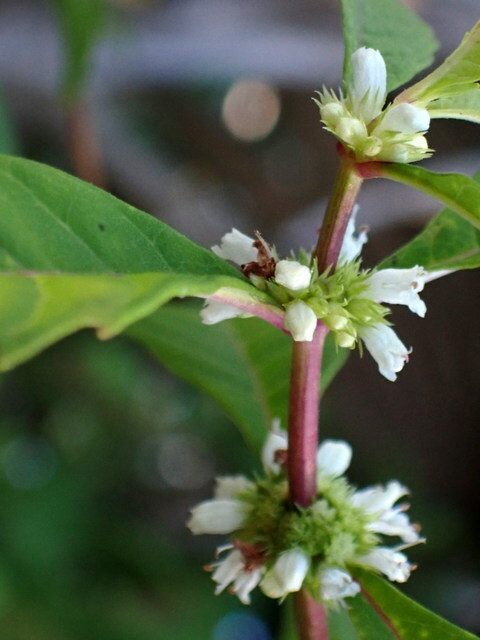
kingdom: Plantae
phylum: Tracheophyta
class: Magnoliopsida
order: Lamiales
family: Lamiaceae
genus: Lycopus
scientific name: Lycopus rubellus
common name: Stalked bugleweed
